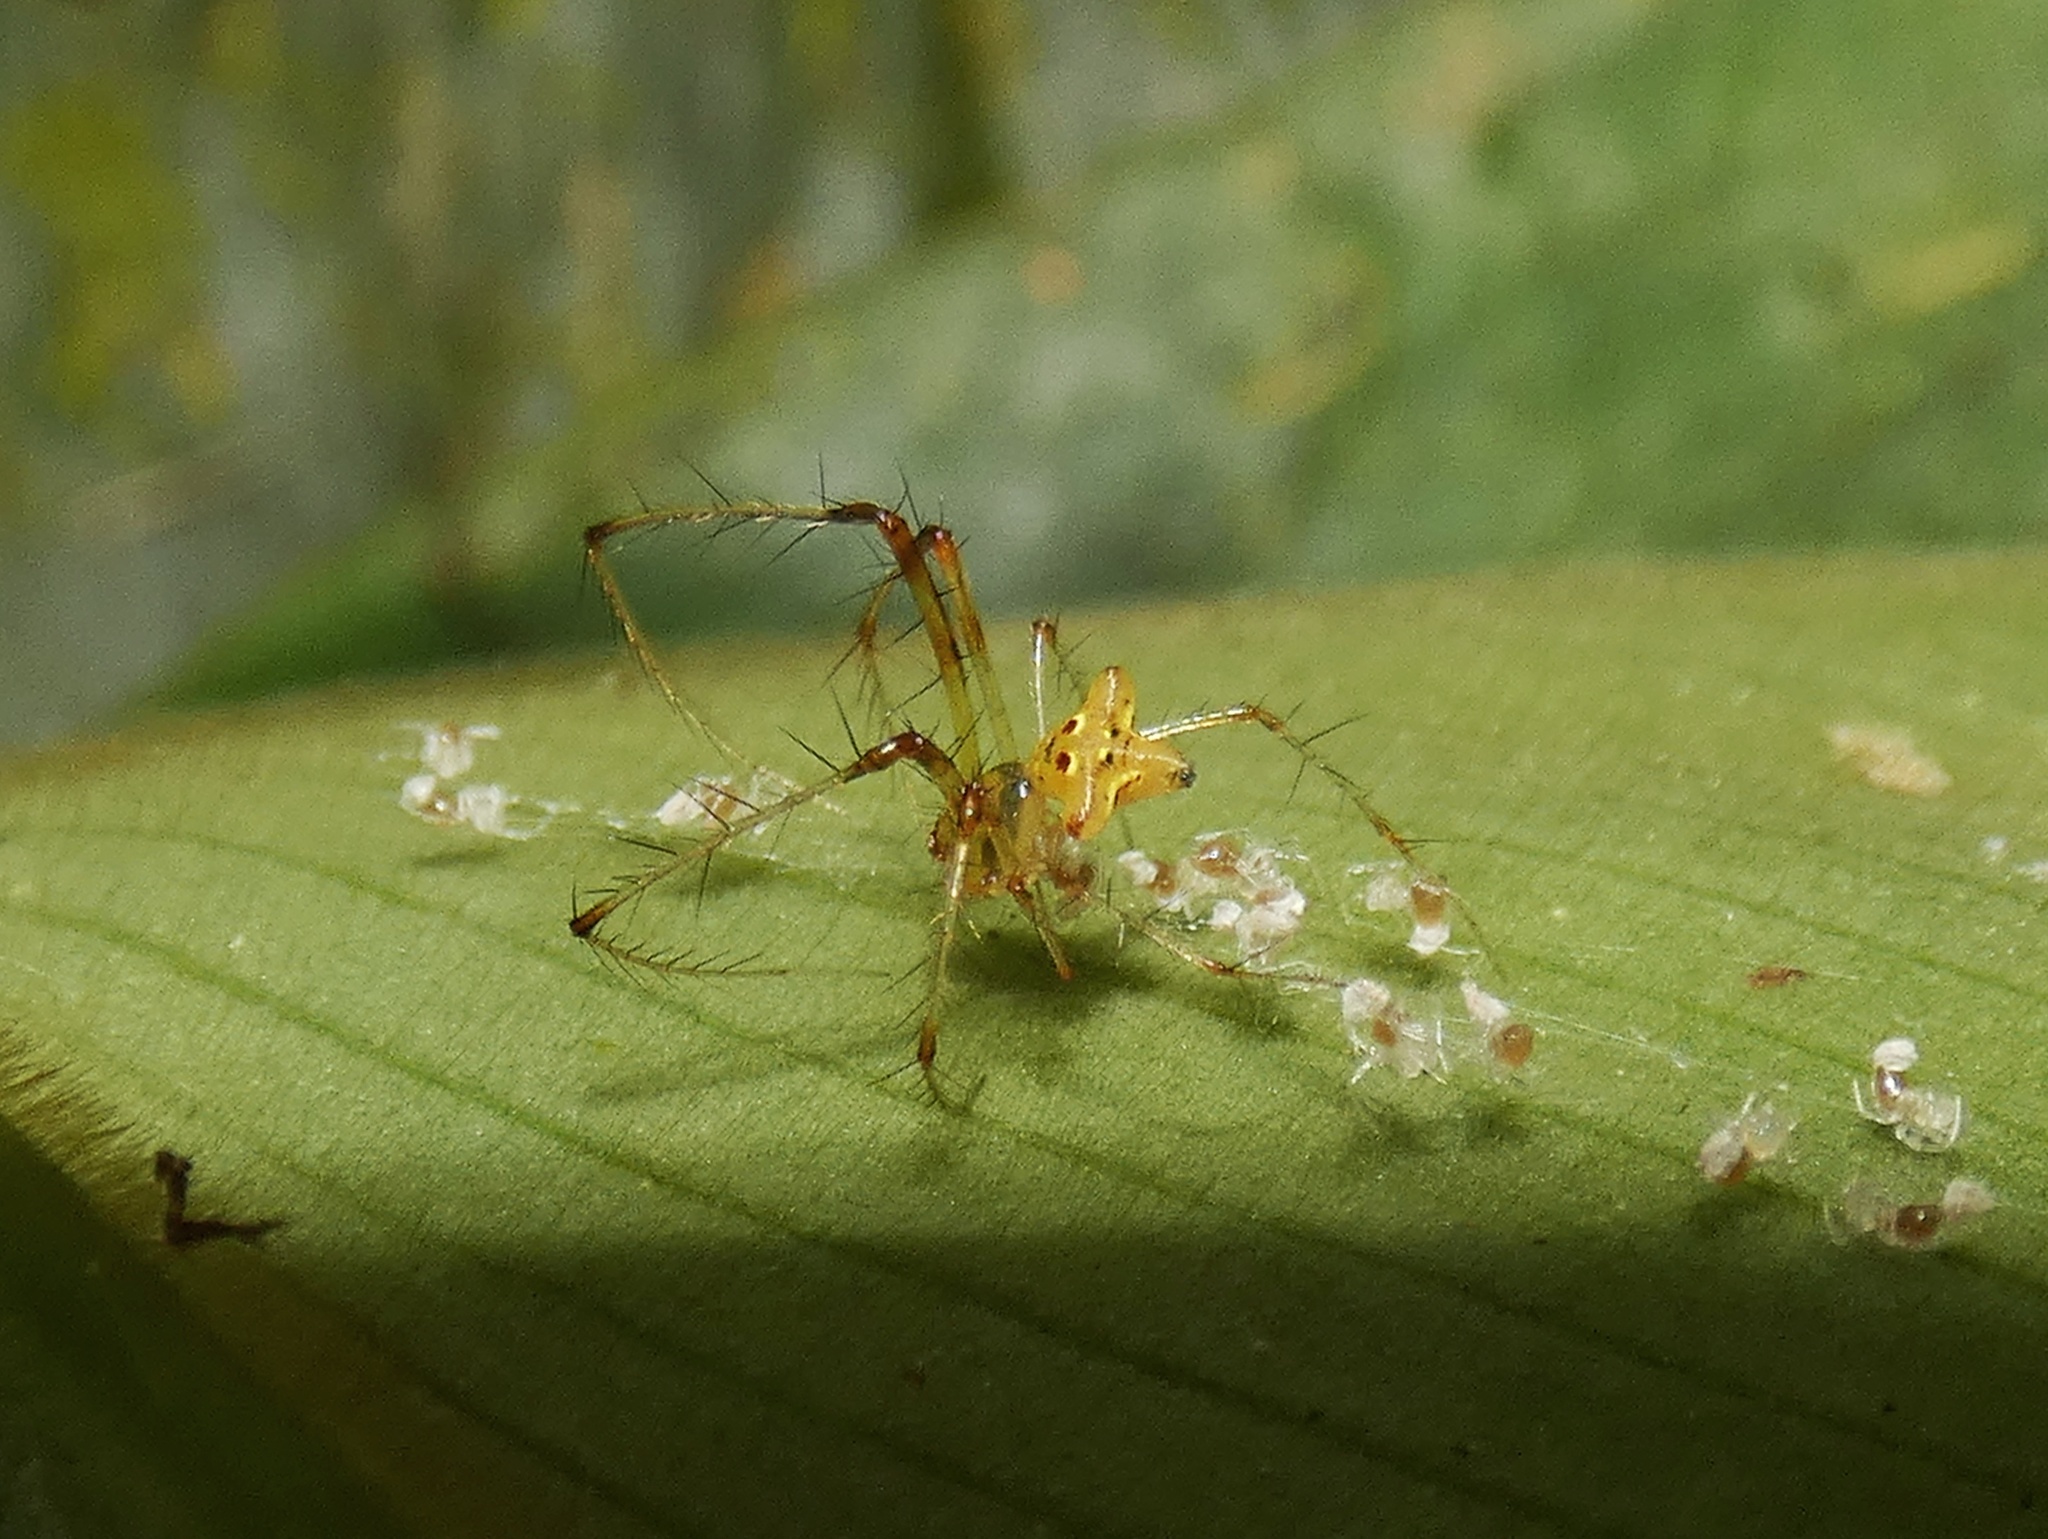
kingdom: Animalia
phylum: Arthropoda
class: Arachnida
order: Araneae
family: Mimetidae
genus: Mimetus
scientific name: Mimetus banksi
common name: Pirate spiders
